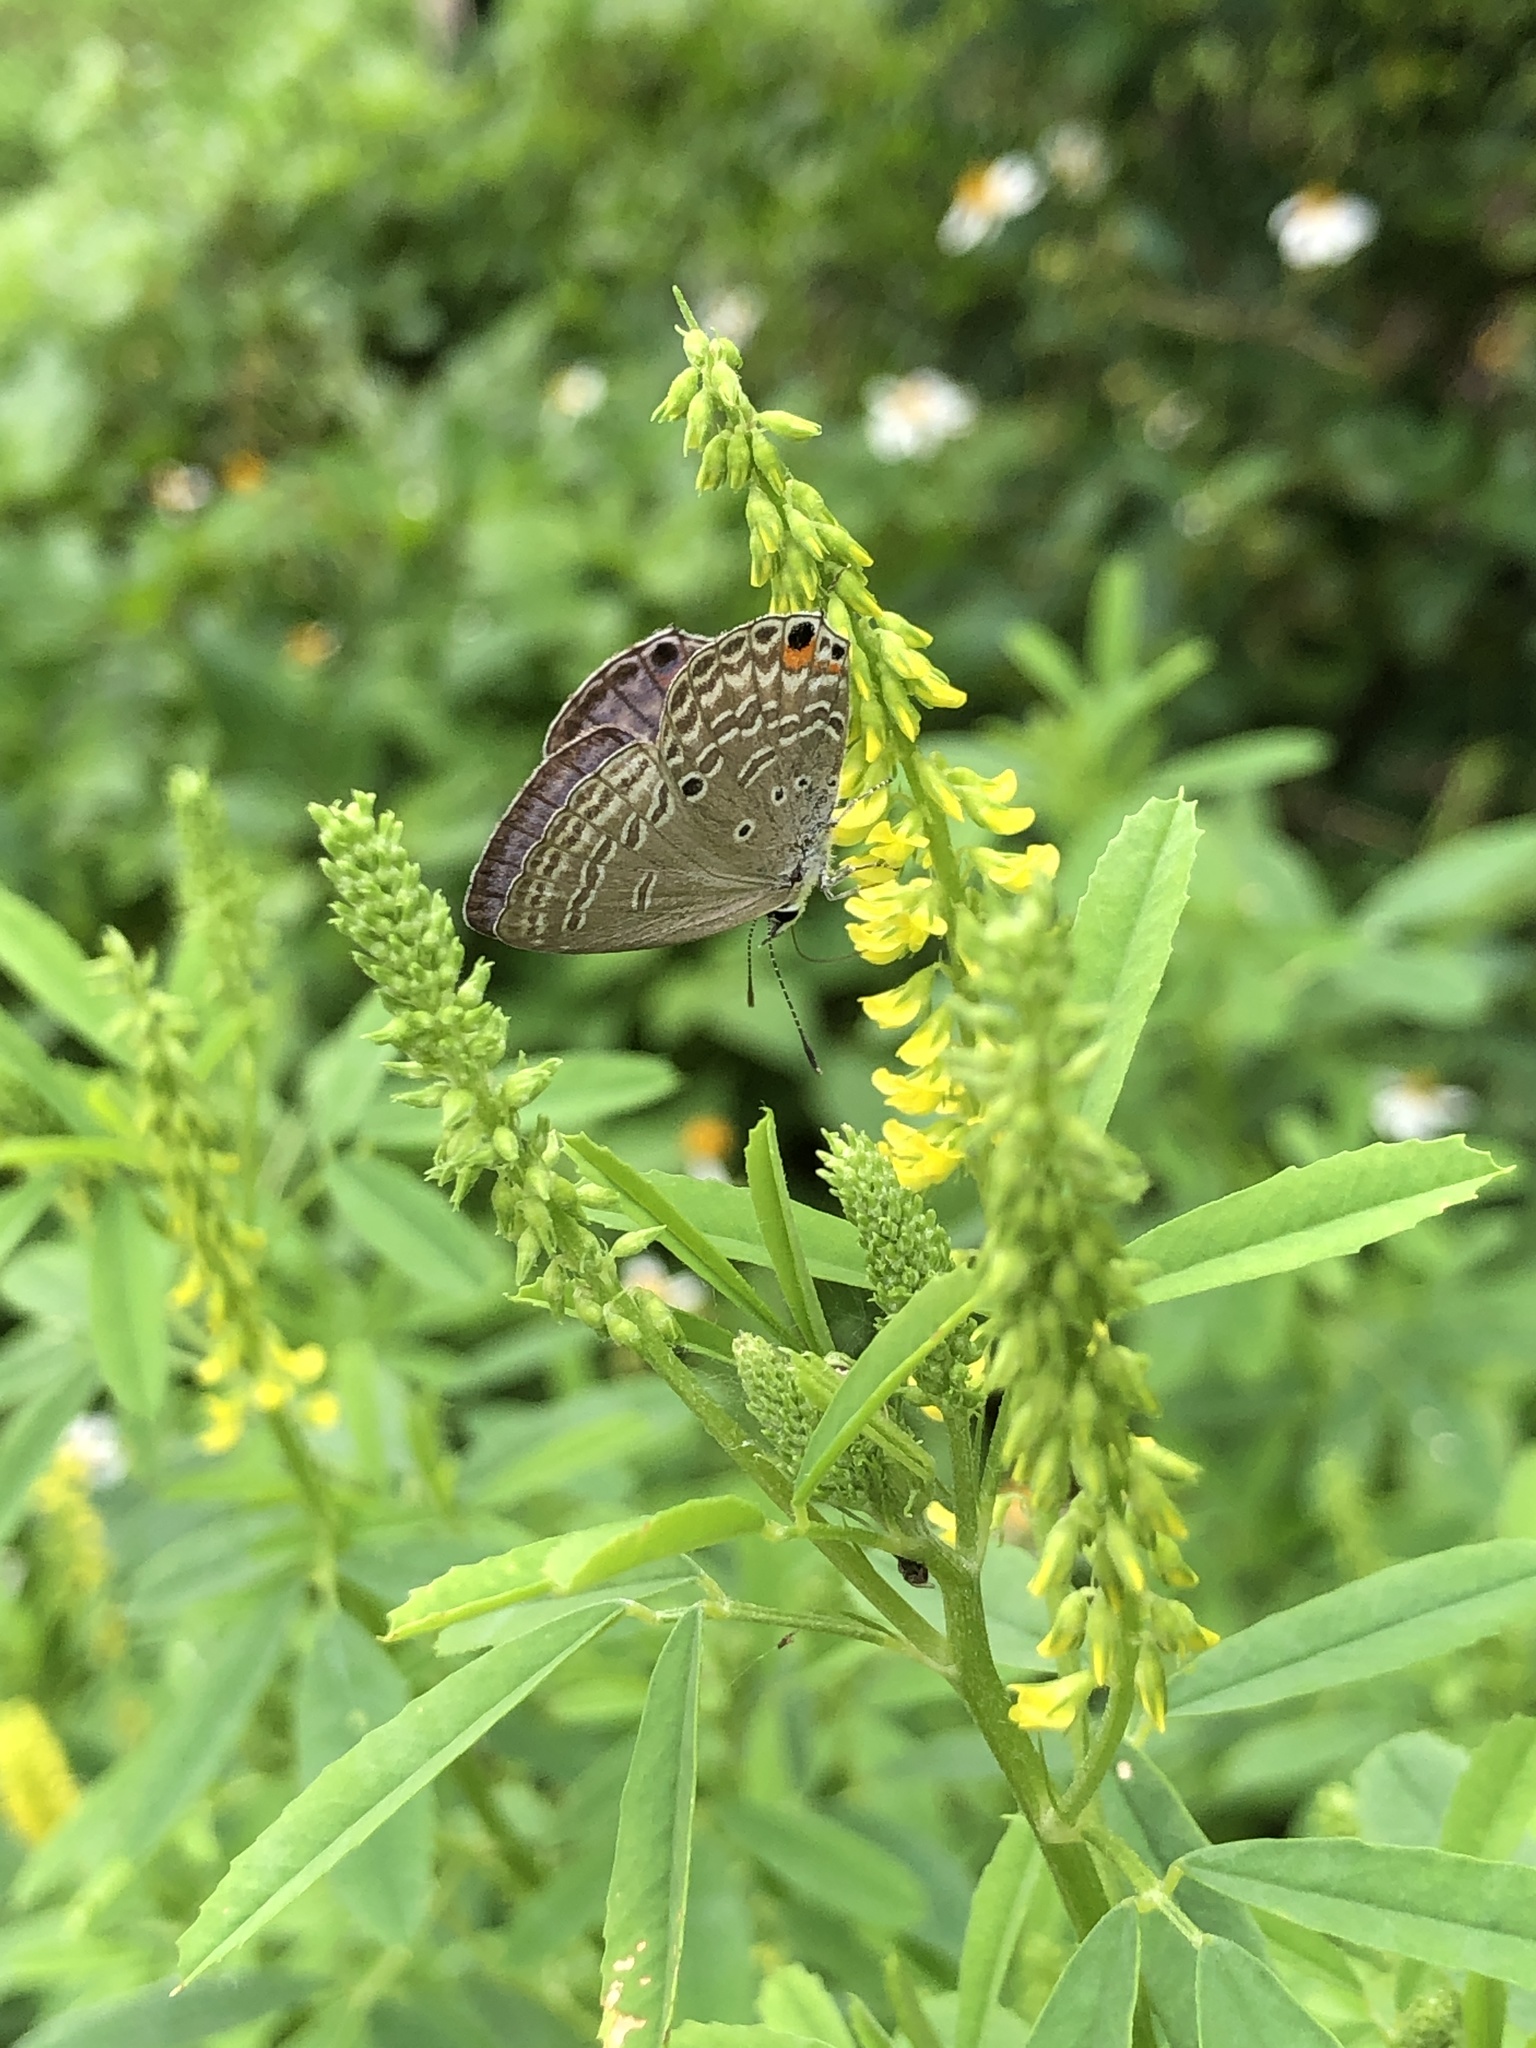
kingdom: Animalia
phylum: Arthropoda
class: Insecta
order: Lepidoptera
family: Lycaenidae
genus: Luthrodes
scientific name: Luthrodes pandava
